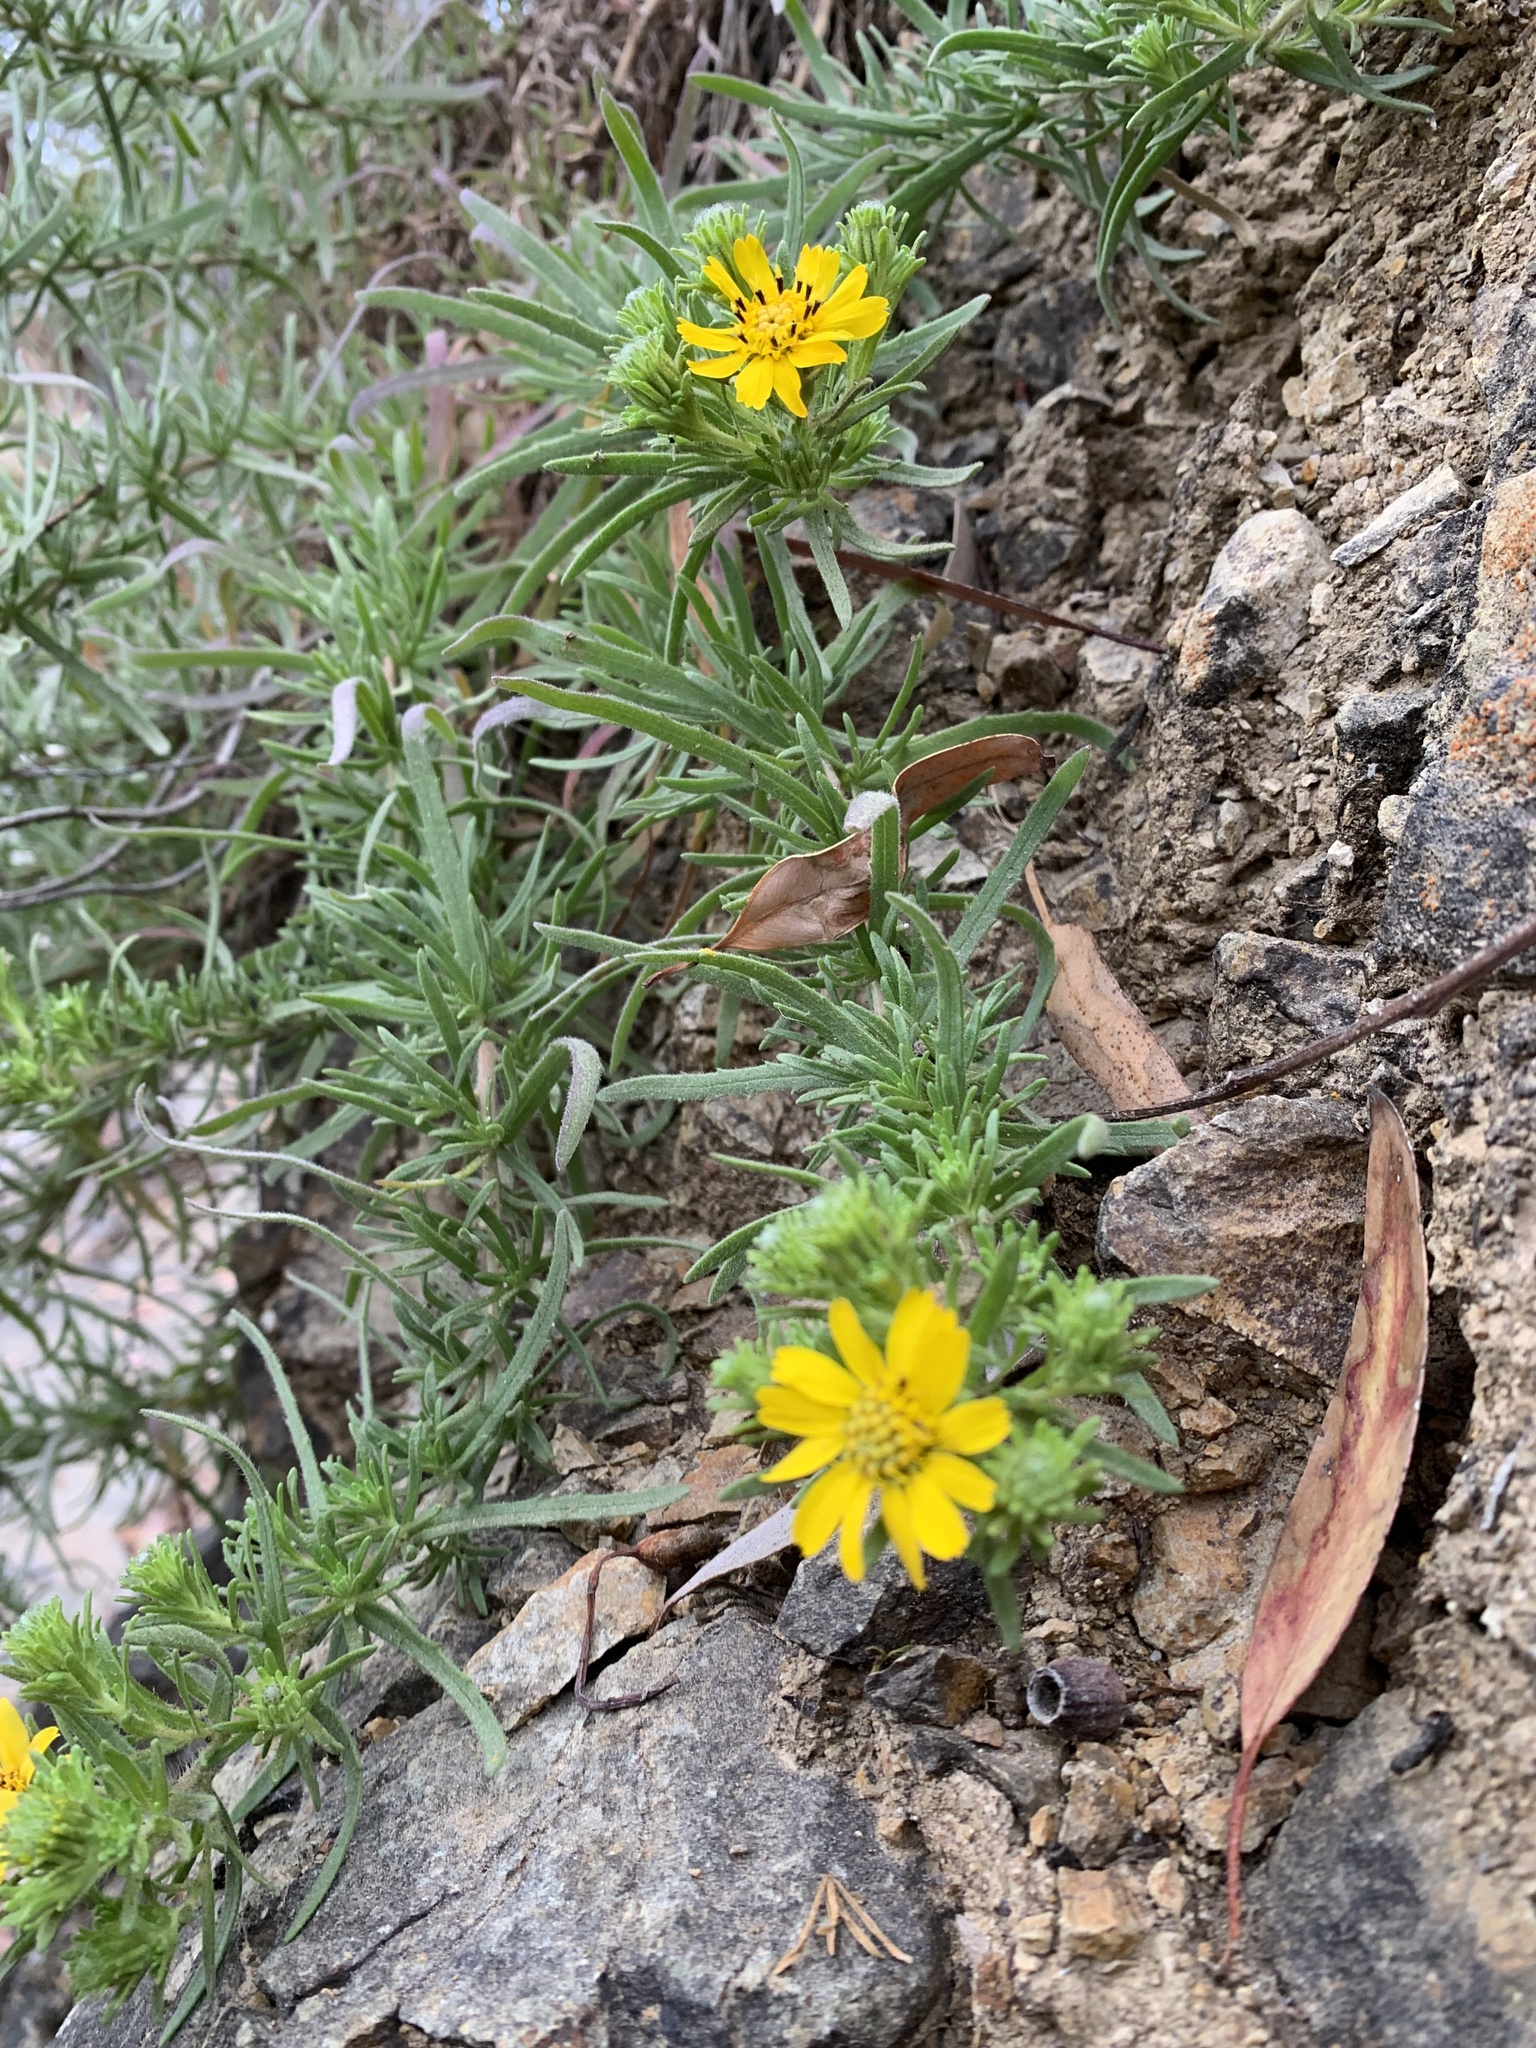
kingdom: Plantae
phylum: Tracheophyta
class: Magnoliopsida
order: Asterales
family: Asteraceae
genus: Deinandra
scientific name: Deinandra clementina
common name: Island tarplant
